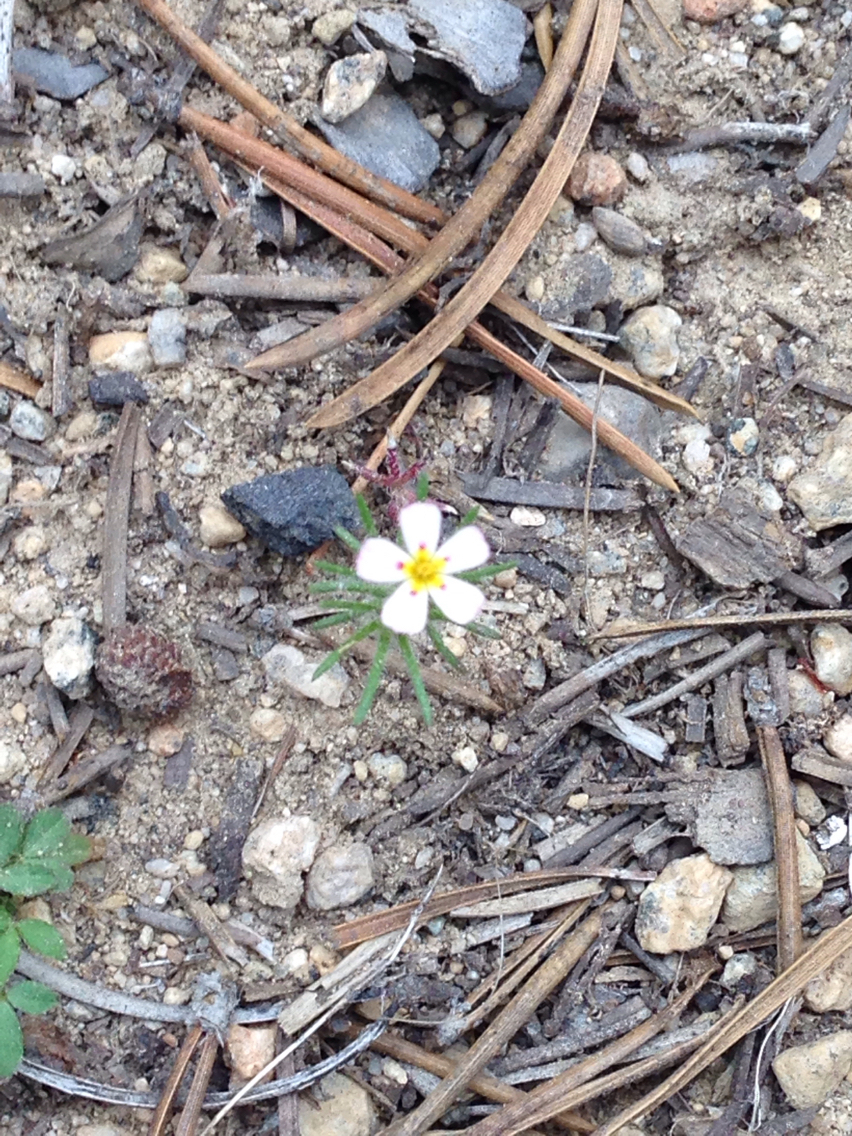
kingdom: Plantae
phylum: Tracheophyta
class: Magnoliopsida
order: Ericales
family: Polemoniaceae
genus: Leptosiphon
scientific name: Leptosiphon ciliatus
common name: Whiskerbrush
